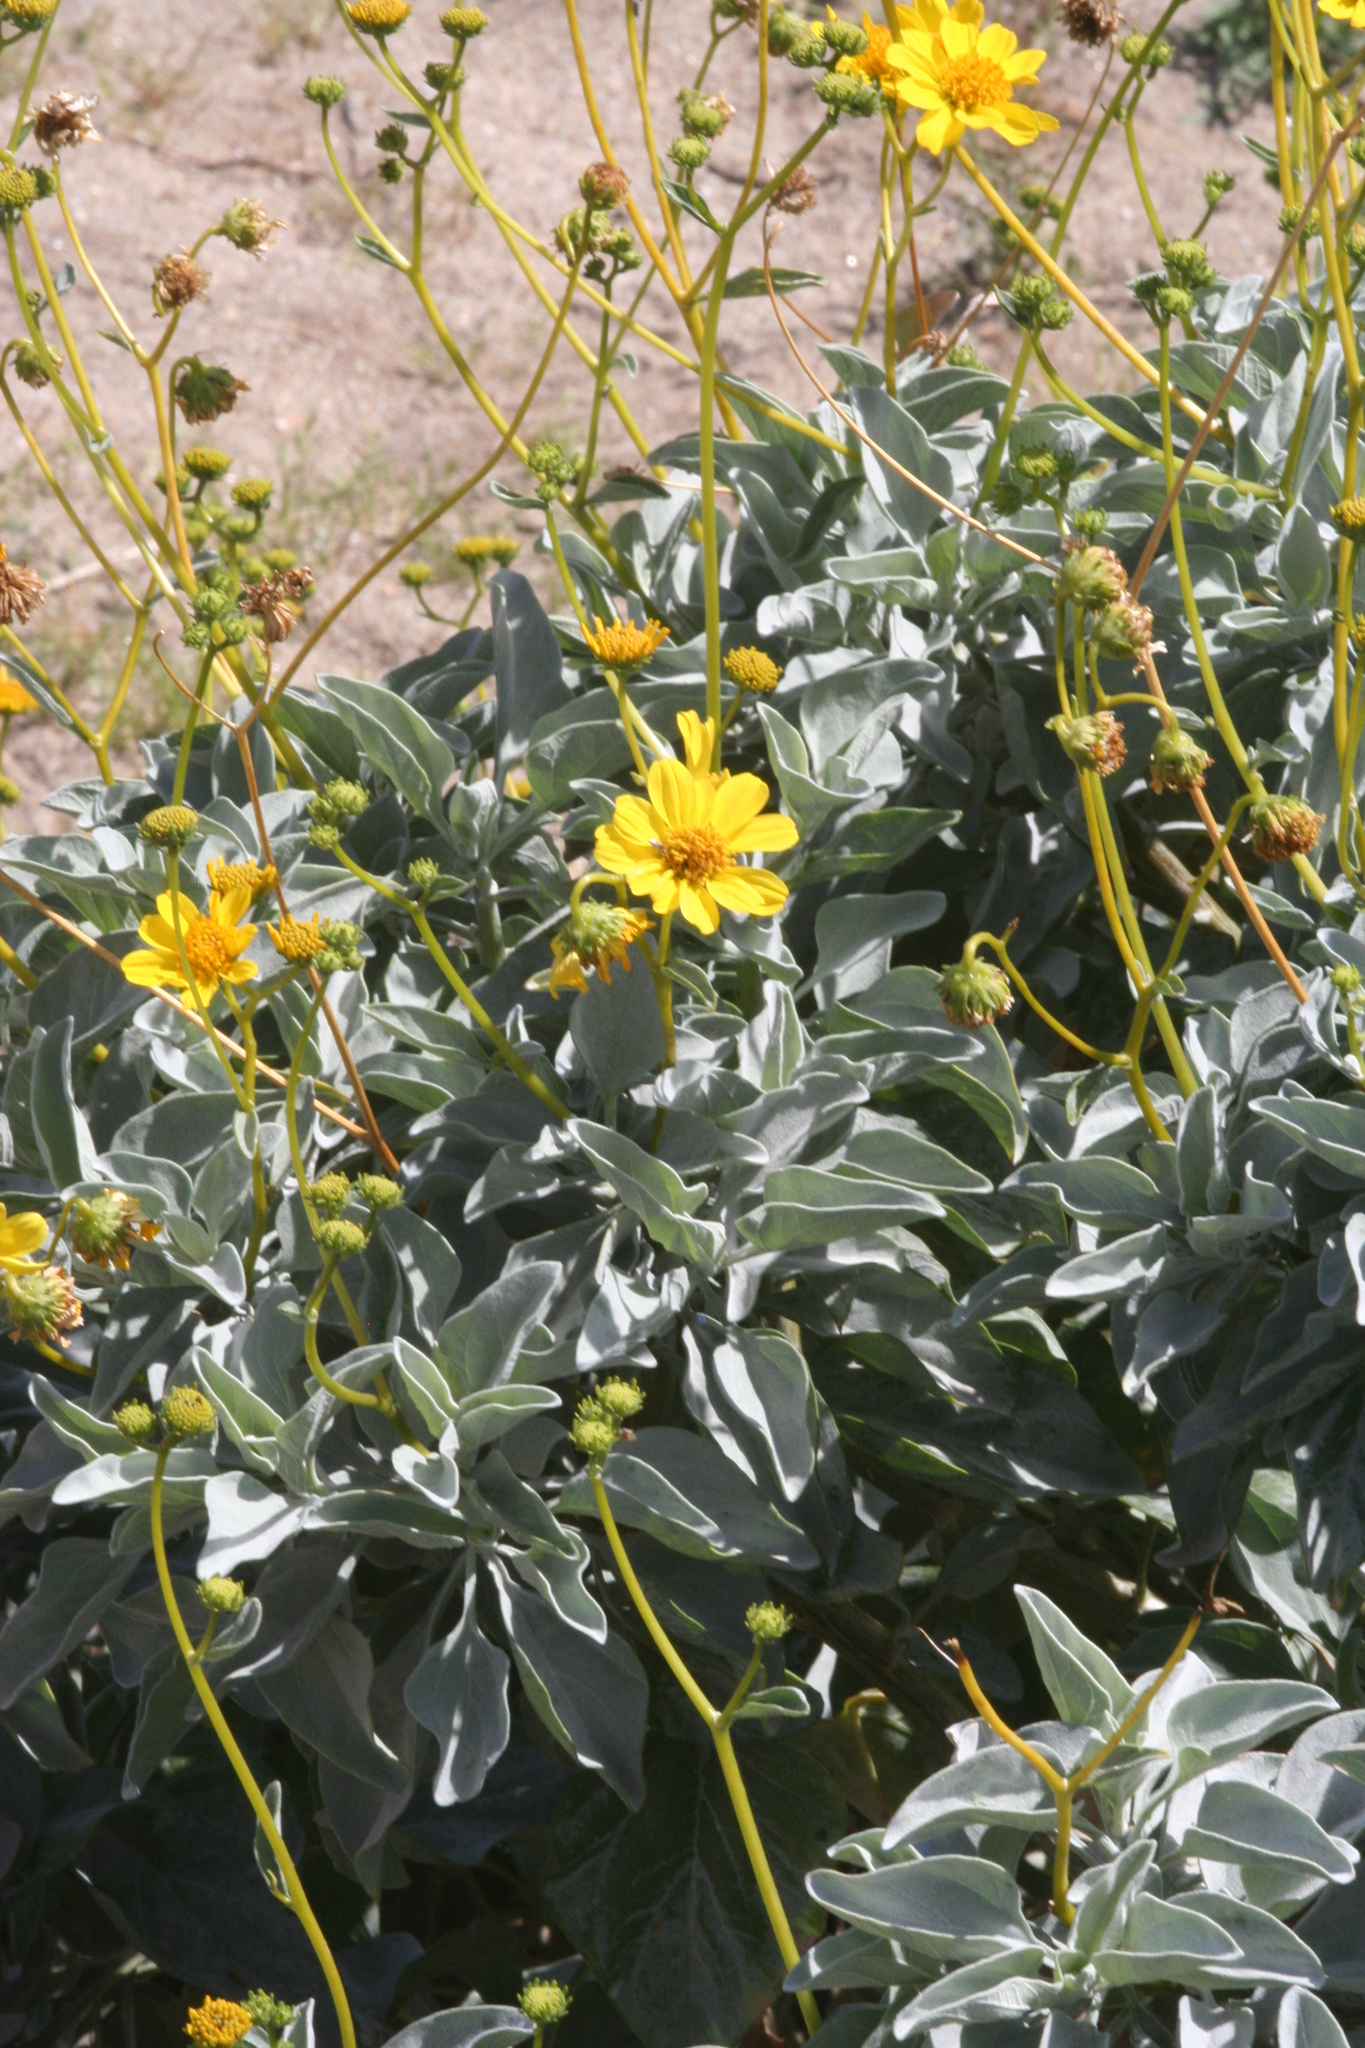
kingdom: Plantae
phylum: Tracheophyta
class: Magnoliopsida
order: Asterales
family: Asteraceae
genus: Encelia
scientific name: Encelia farinosa
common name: Brittlebush
